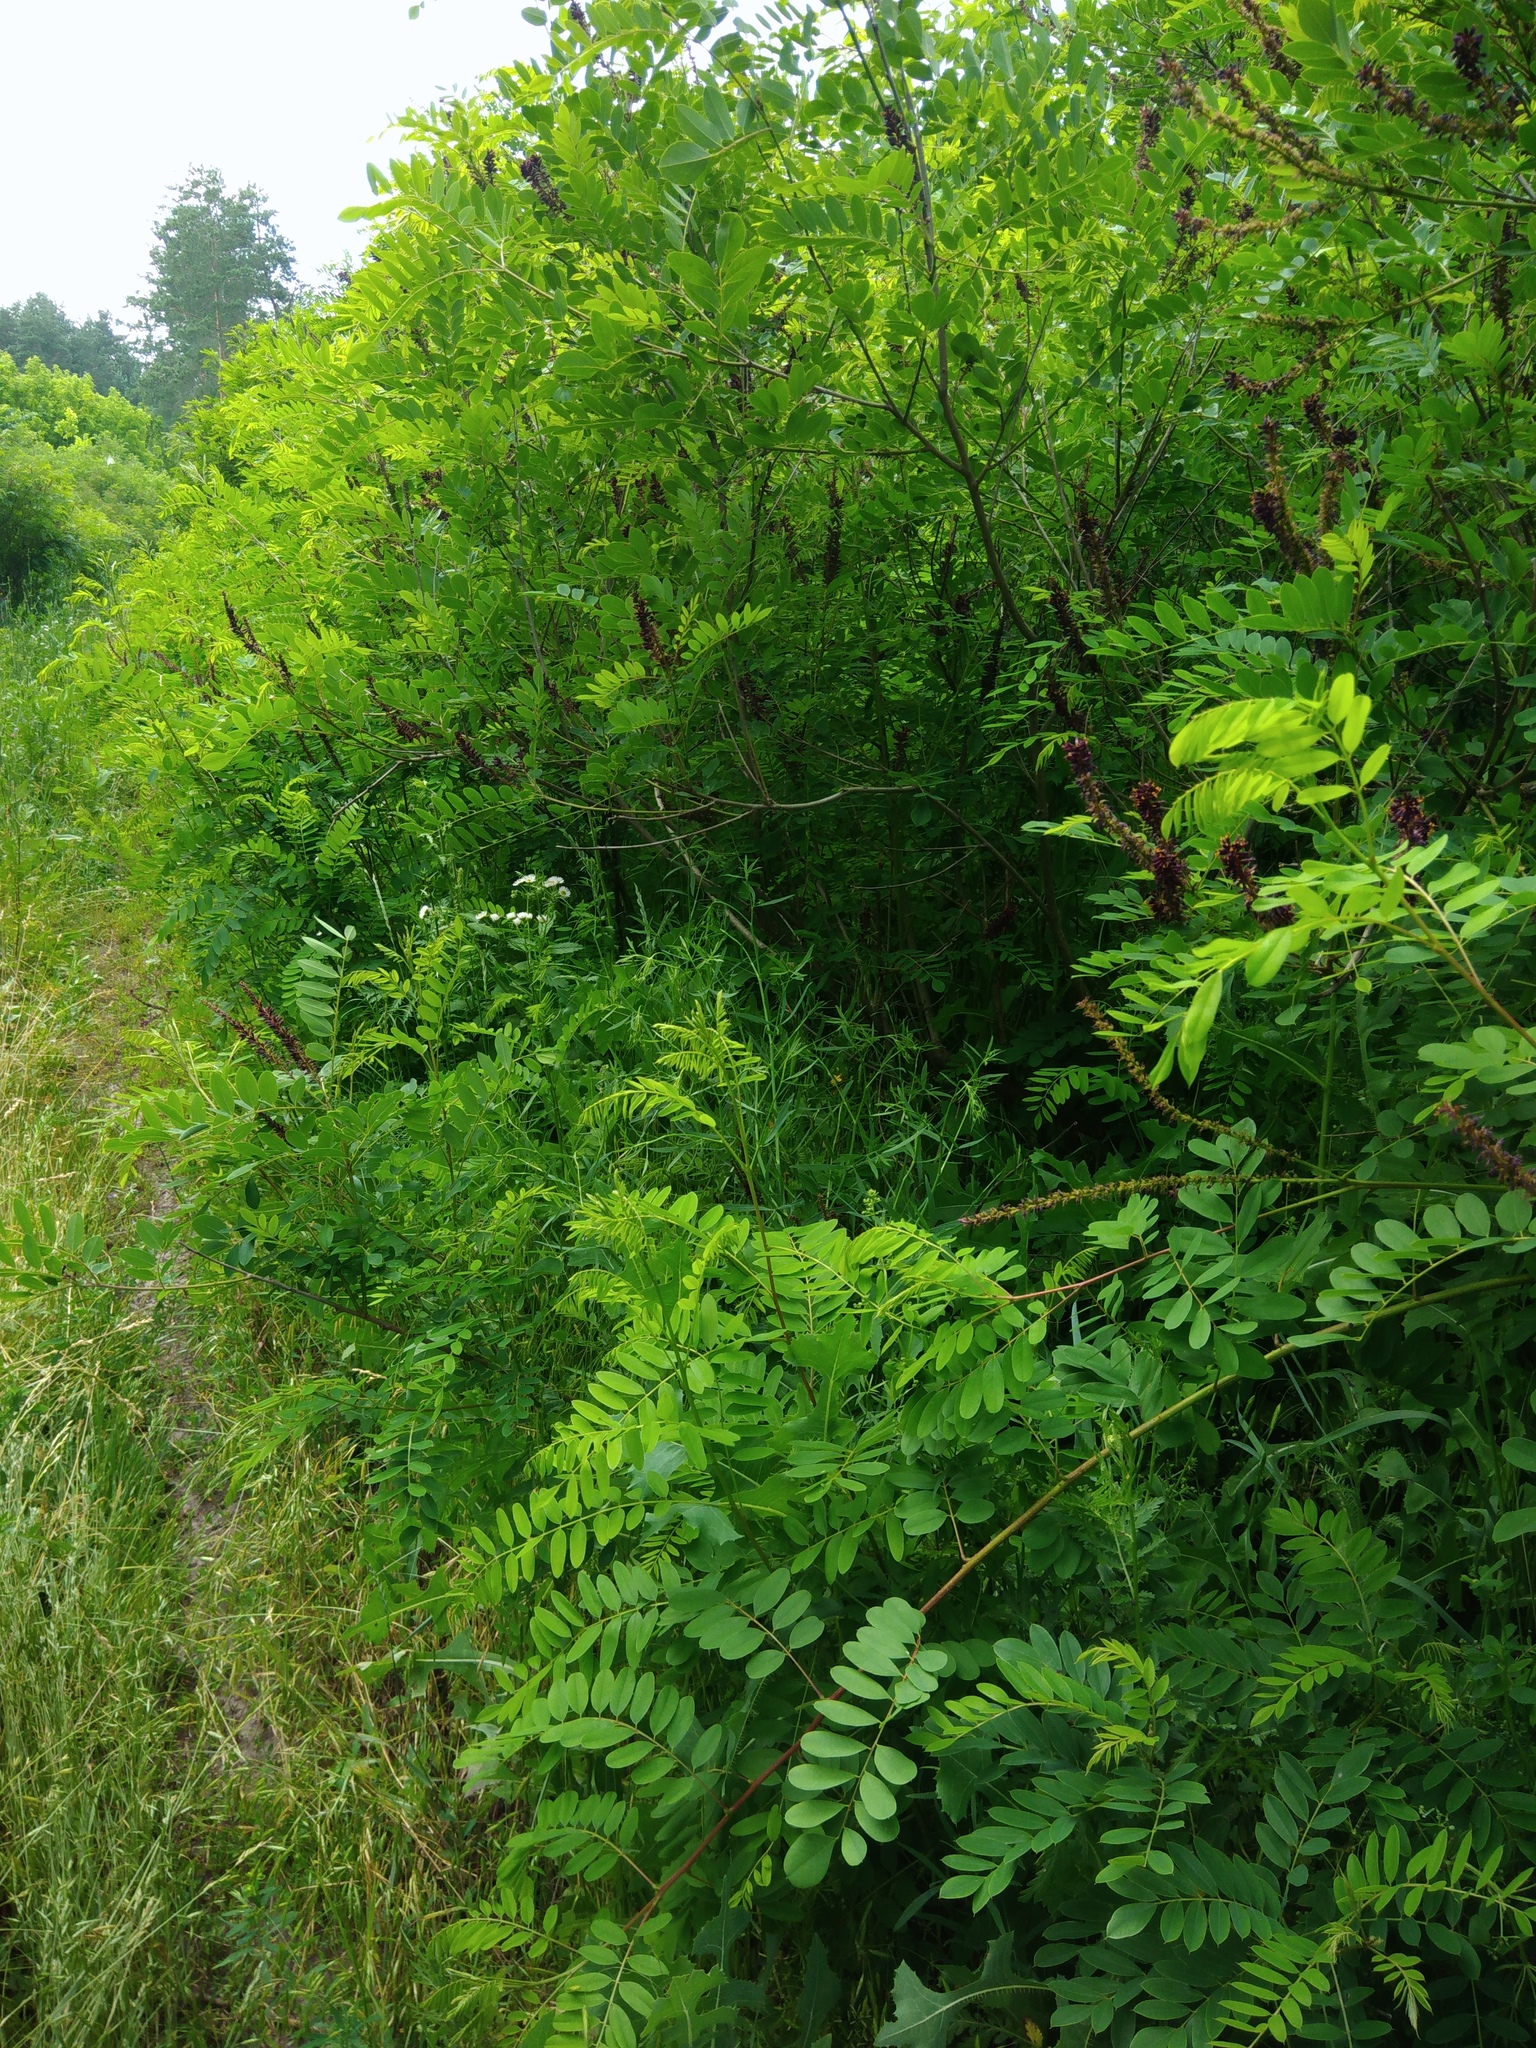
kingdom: Plantae
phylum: Tracheophyta
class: Magnoliopsida
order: Fabales
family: Fabaceae
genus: Amorpha
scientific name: Amorpha fruticosa
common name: False indigo
